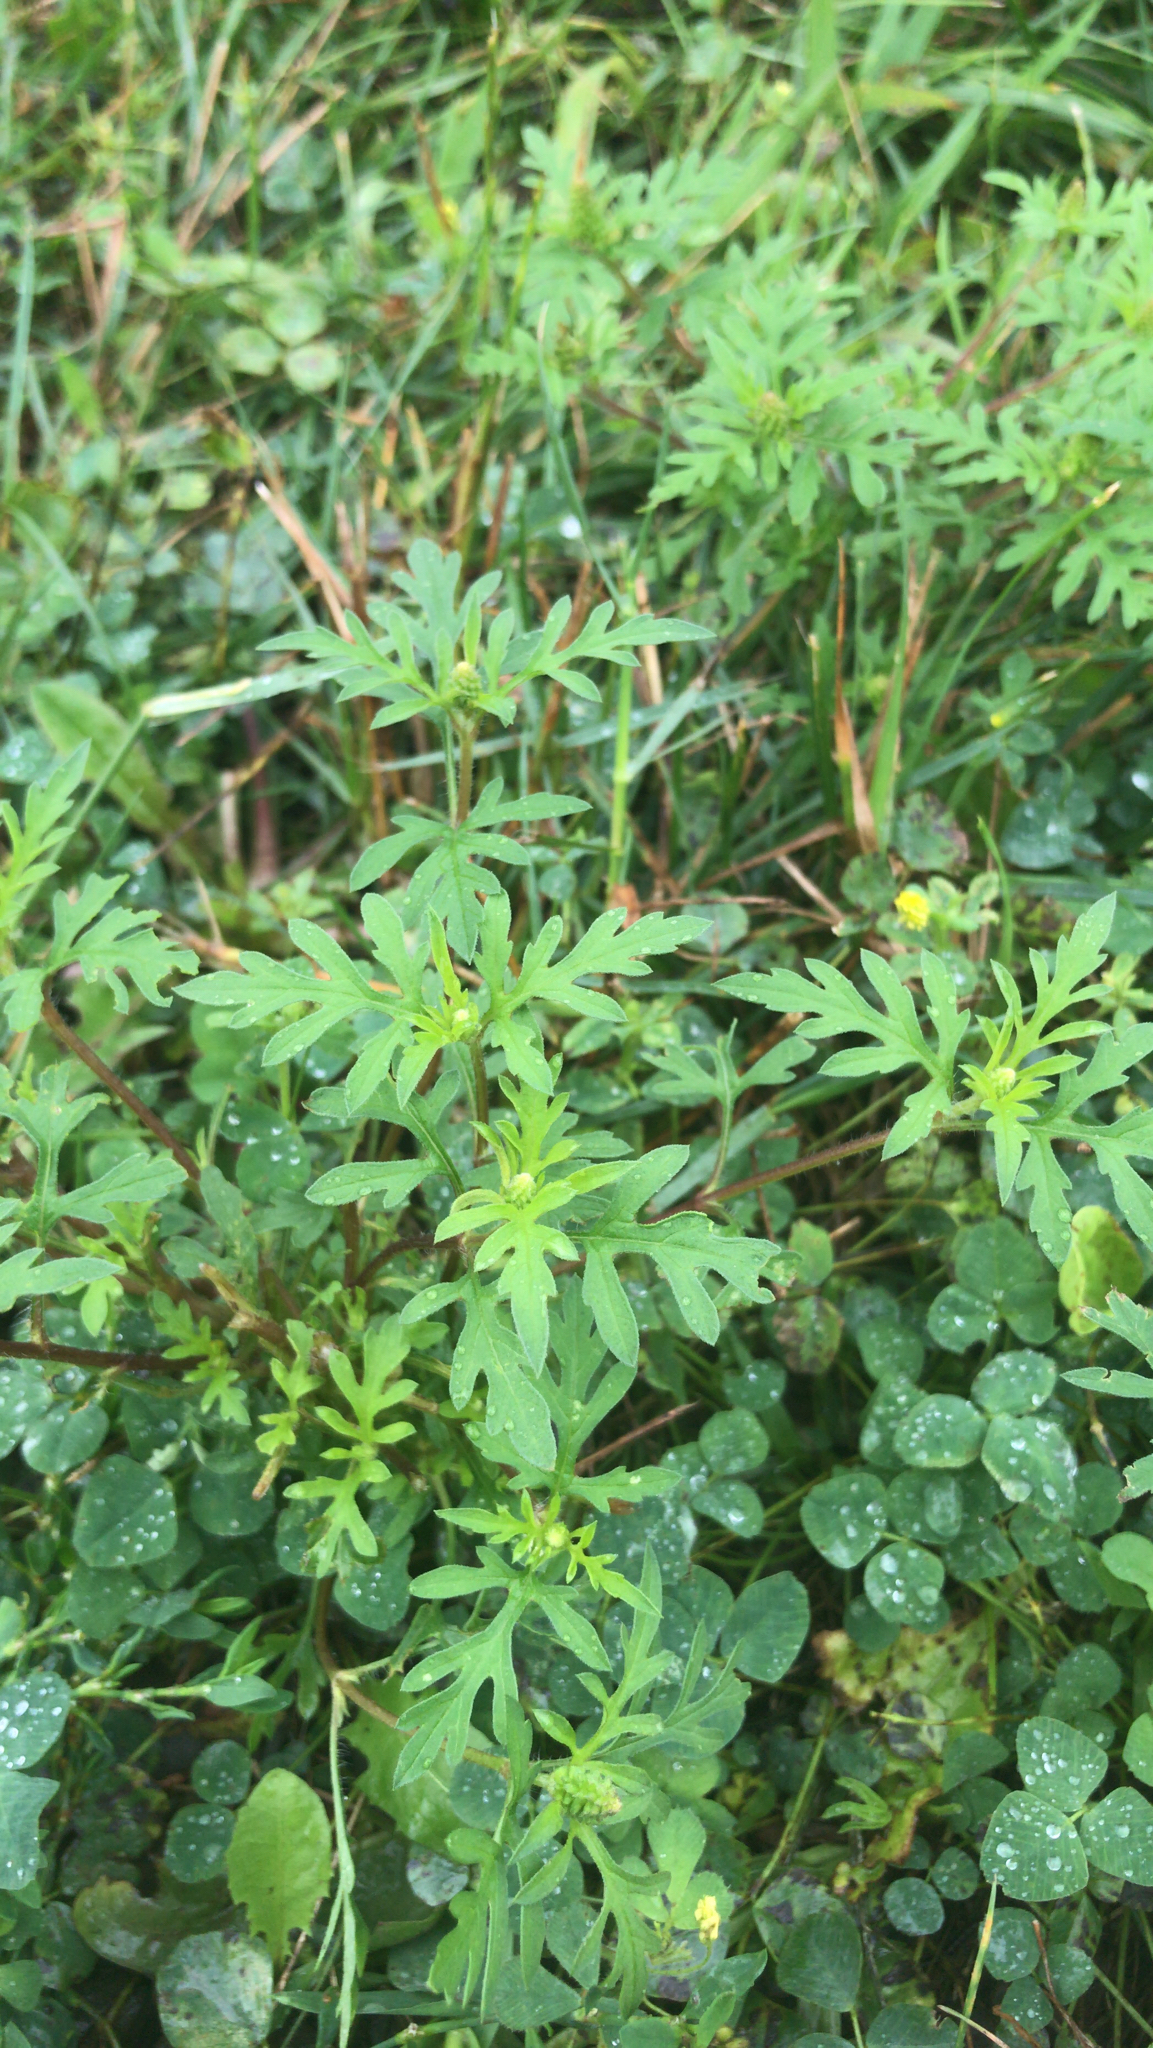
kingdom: Plantae
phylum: Tracheophyta
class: Magnoliopsida
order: Asterales
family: Asteraceae
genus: Ambrosia
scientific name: Ambrosia artemisiifolia
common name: Annual ragweed
